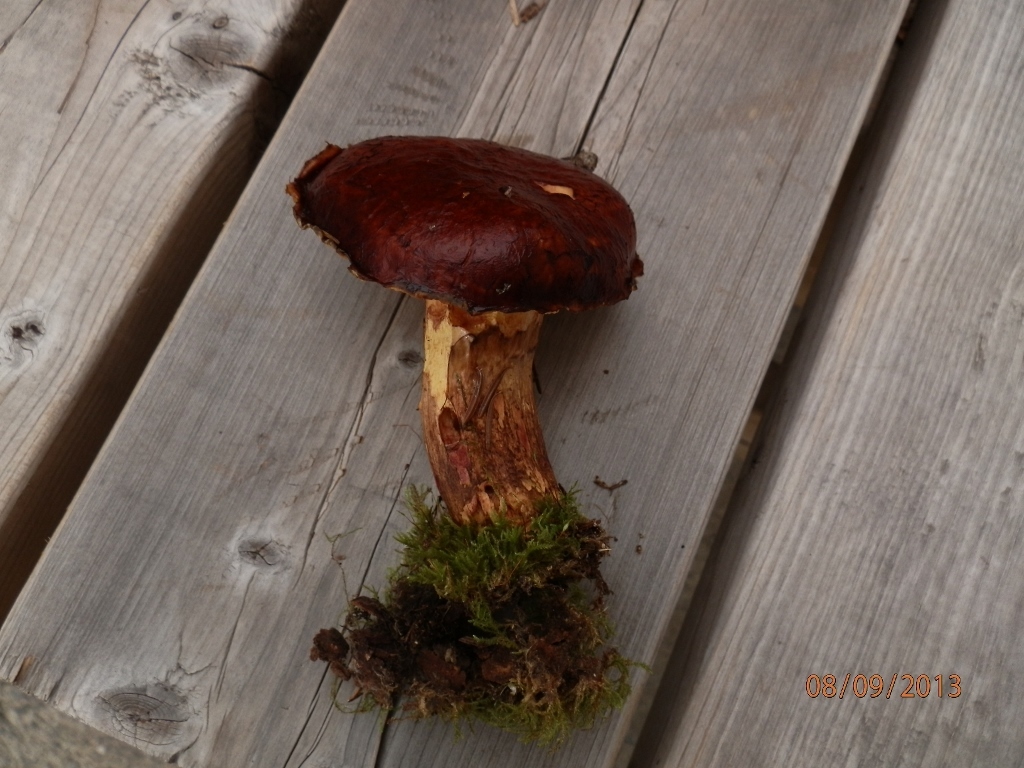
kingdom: Fungi
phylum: Basidiomycota
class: Agaricomycetes
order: Boletales
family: Suillaceae
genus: Boletinus
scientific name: Boletinus glandulosus
